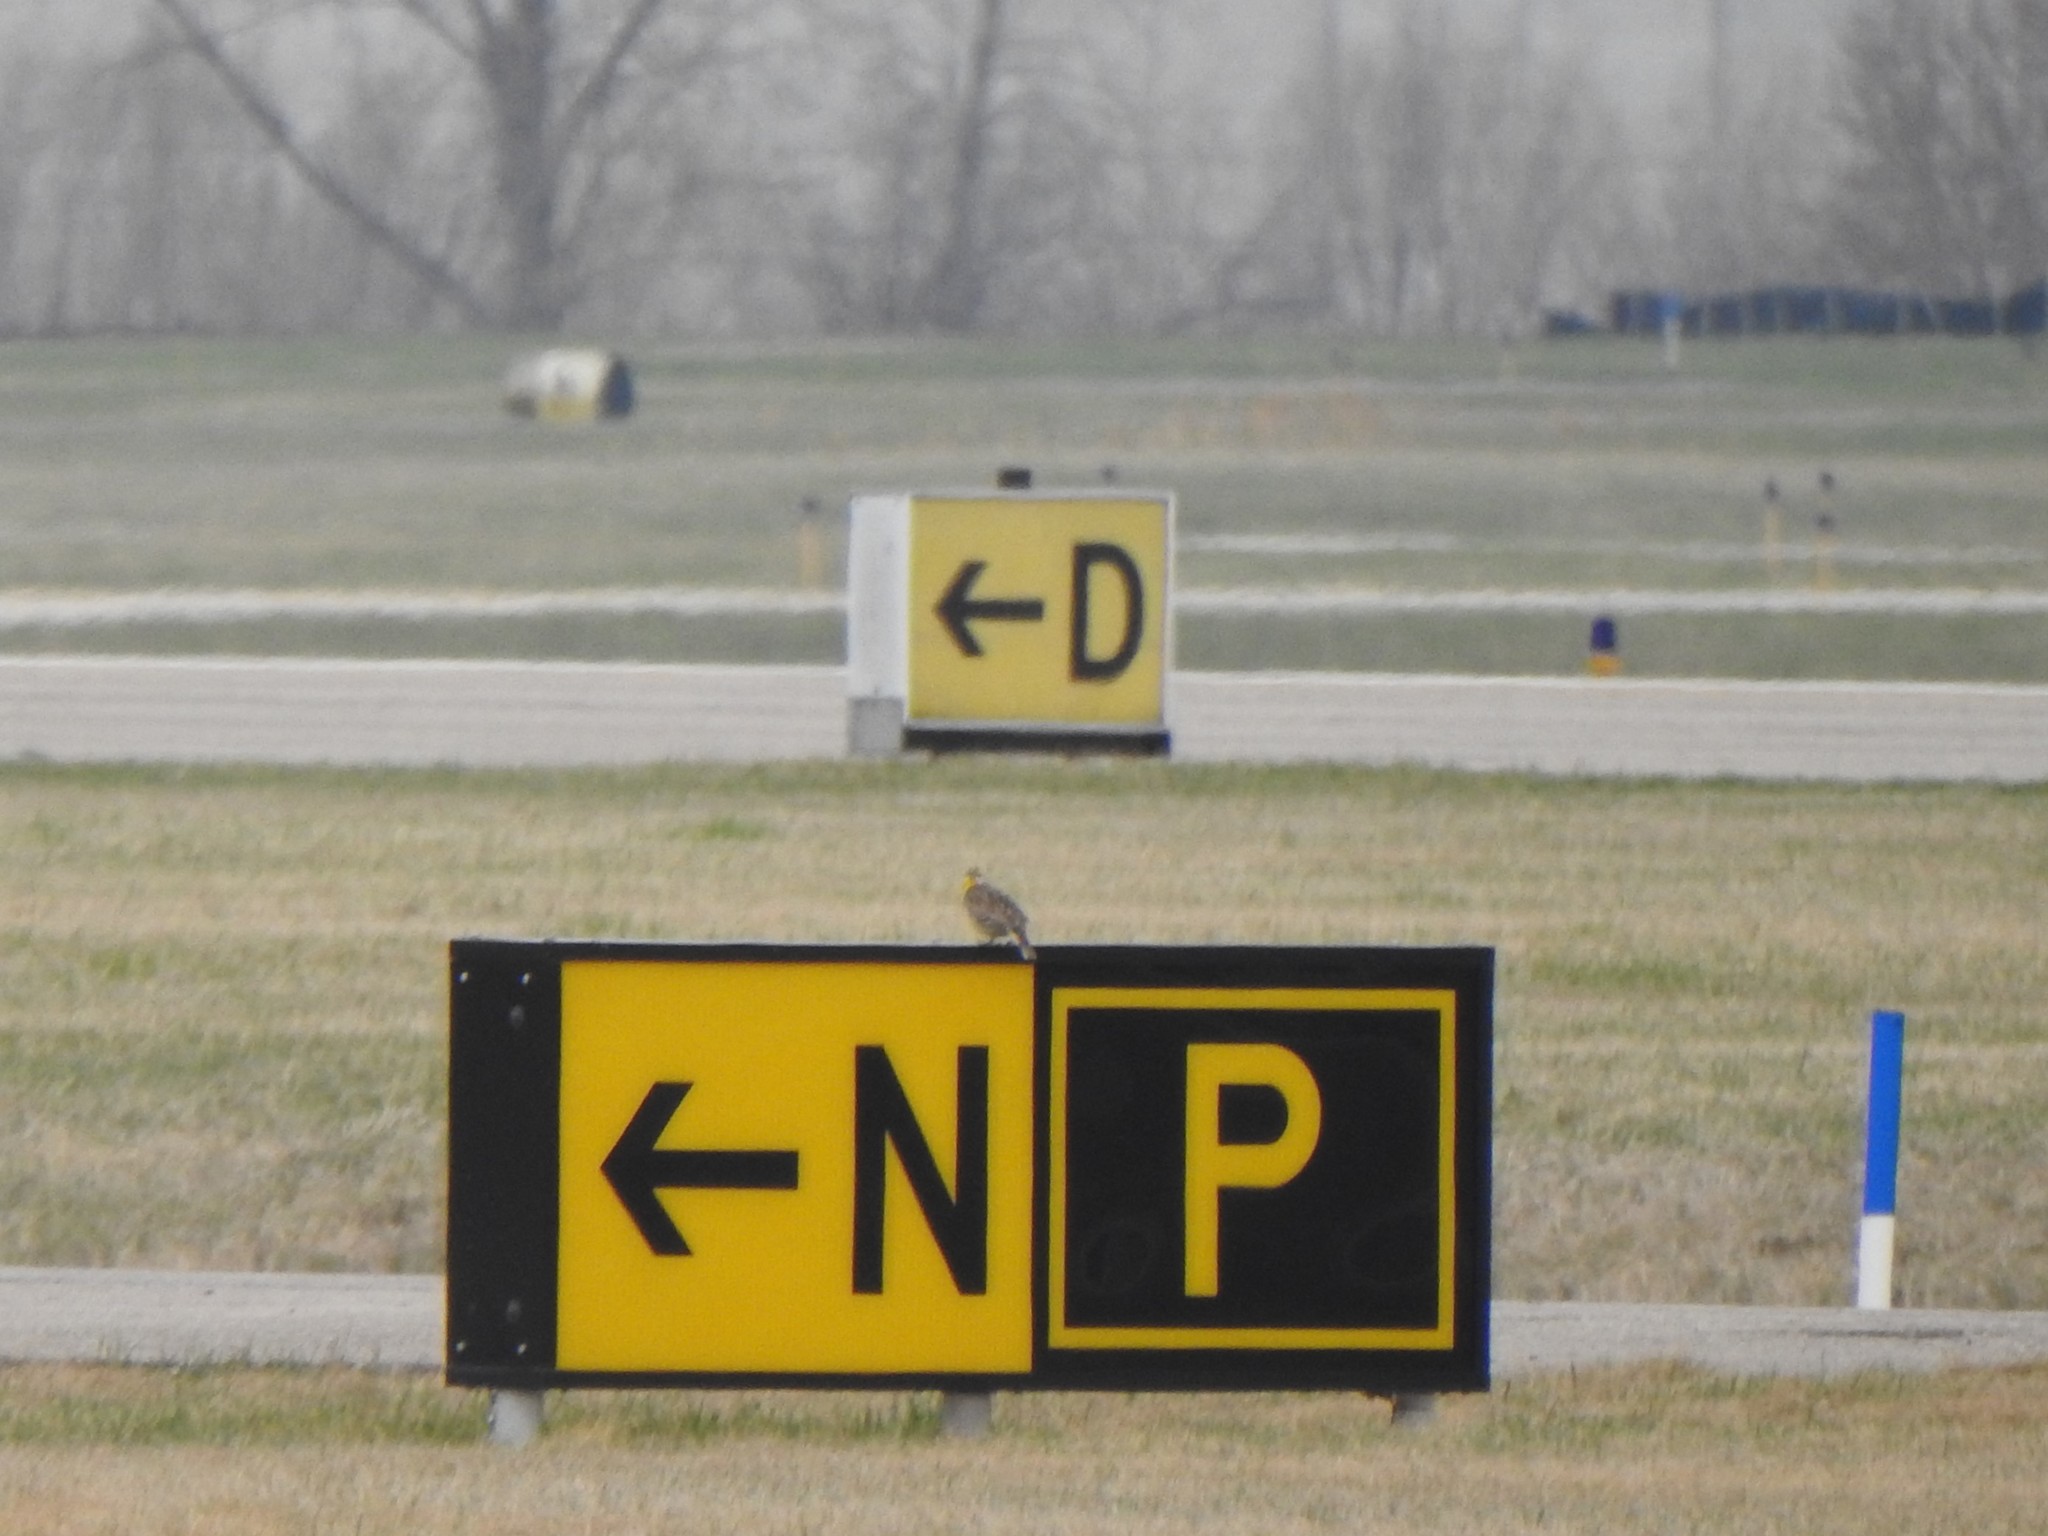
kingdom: Animalia
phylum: Chordata
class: Aves
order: Passeriformes
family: Icteridae
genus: Sturnella
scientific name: Sturnella magna
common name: Eastern meadowlark
